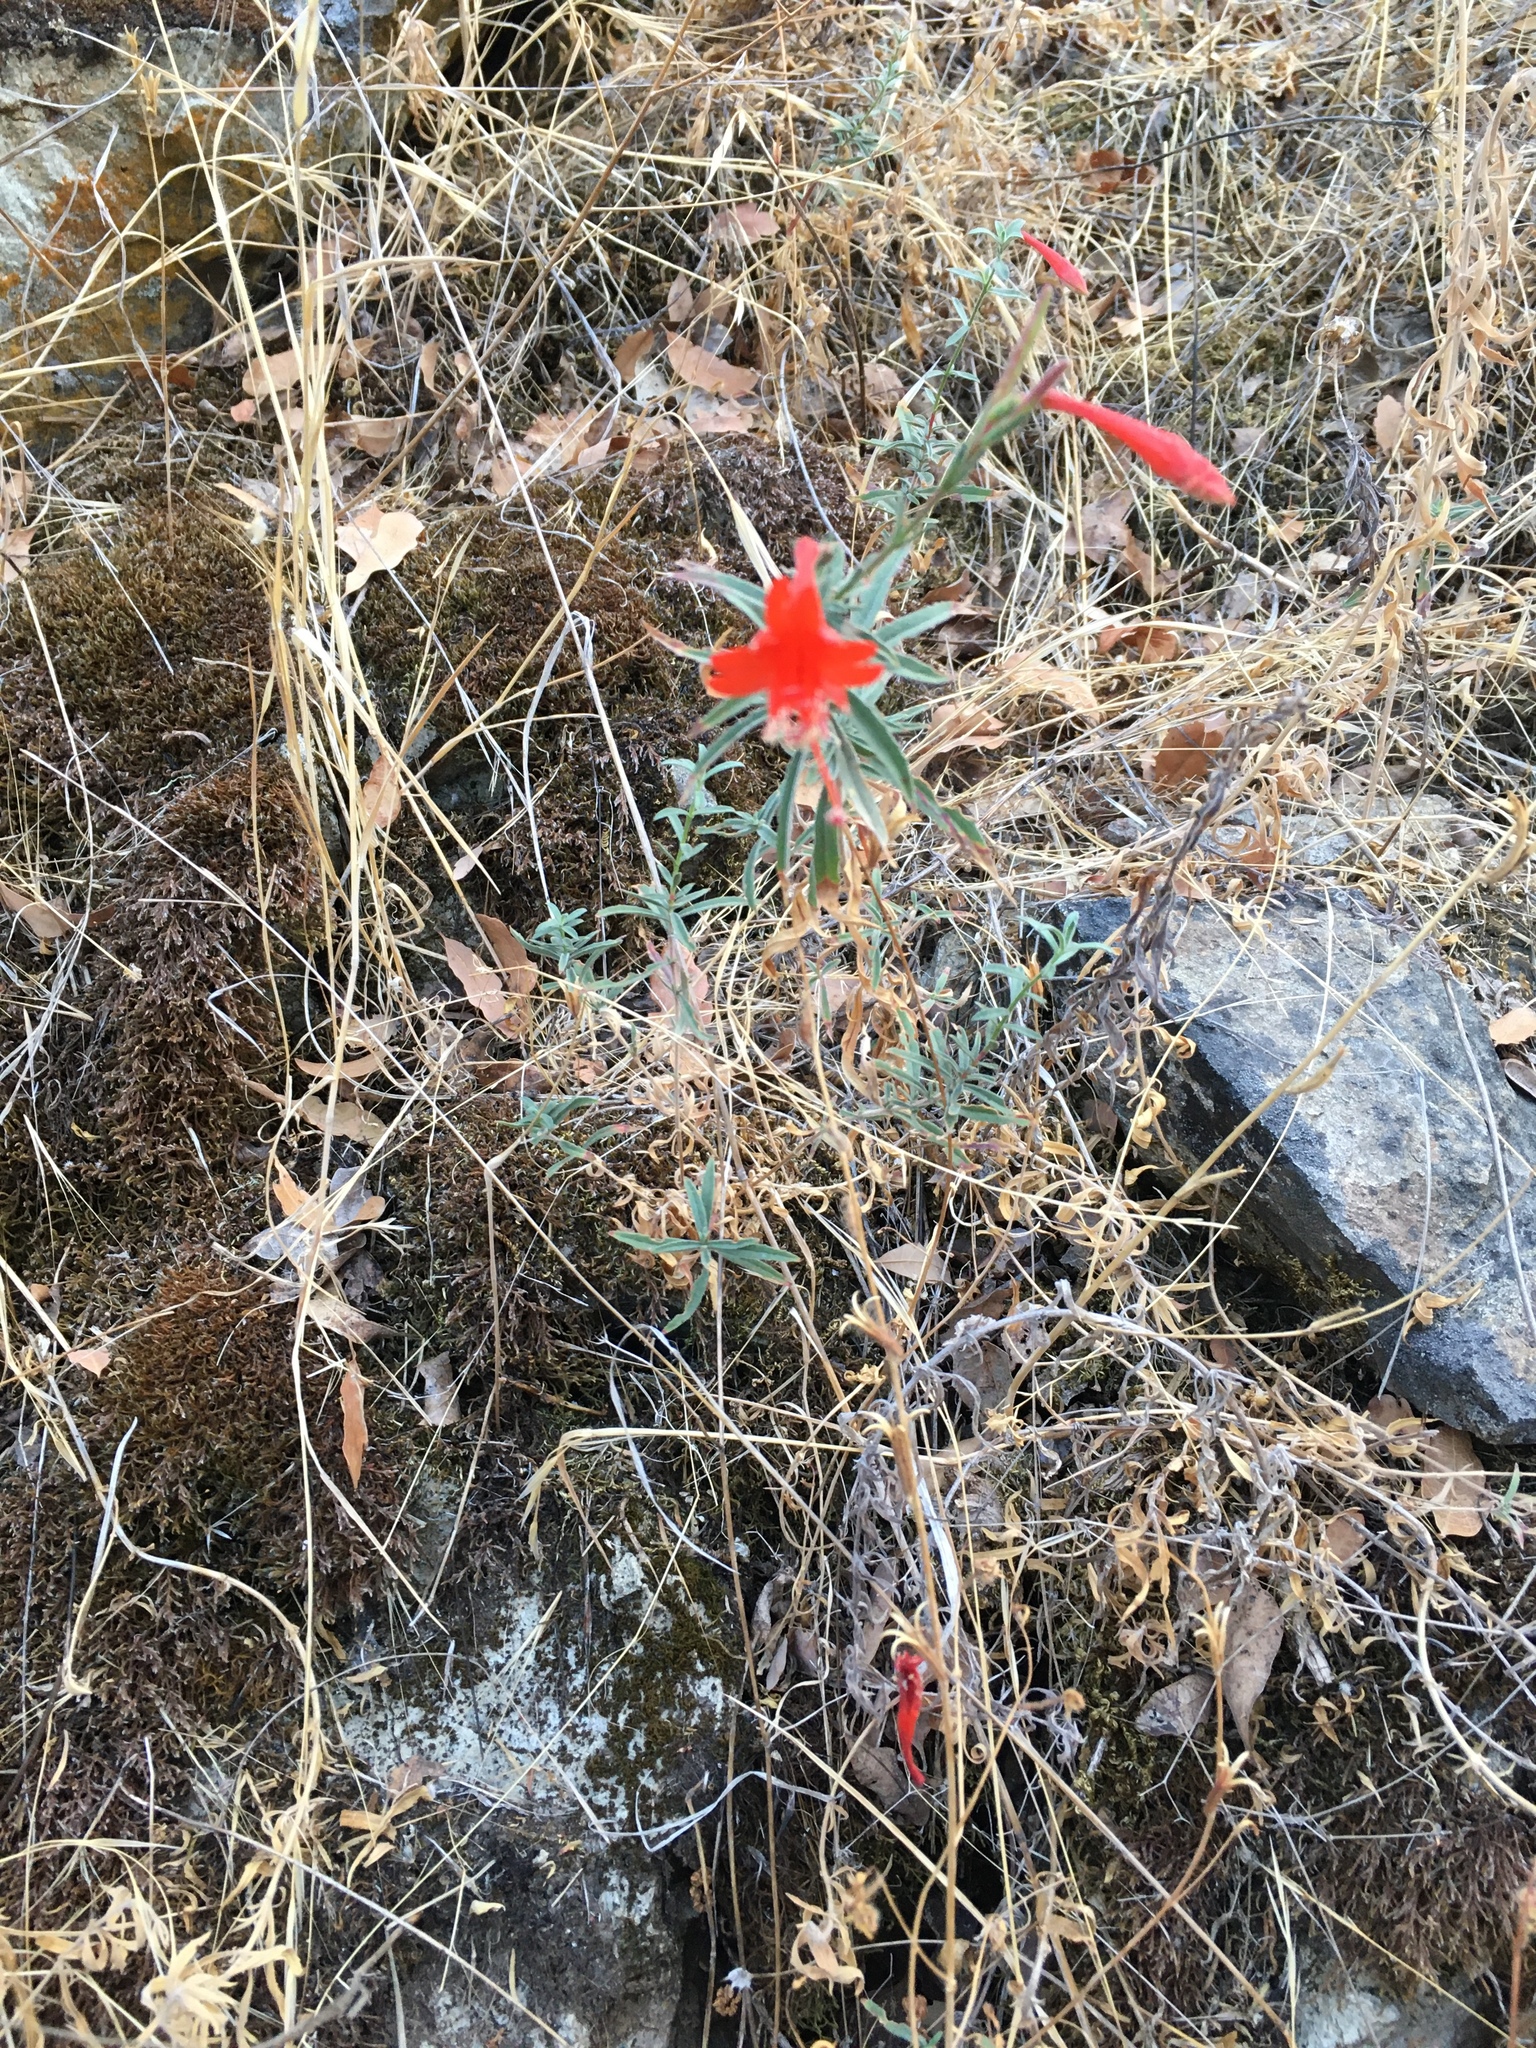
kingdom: Plantae
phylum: Tracheophyta
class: Magnoliopsida
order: Myrtales
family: Onagraceae
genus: Epilobium
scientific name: Epilobium canum
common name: California-fuchsia
